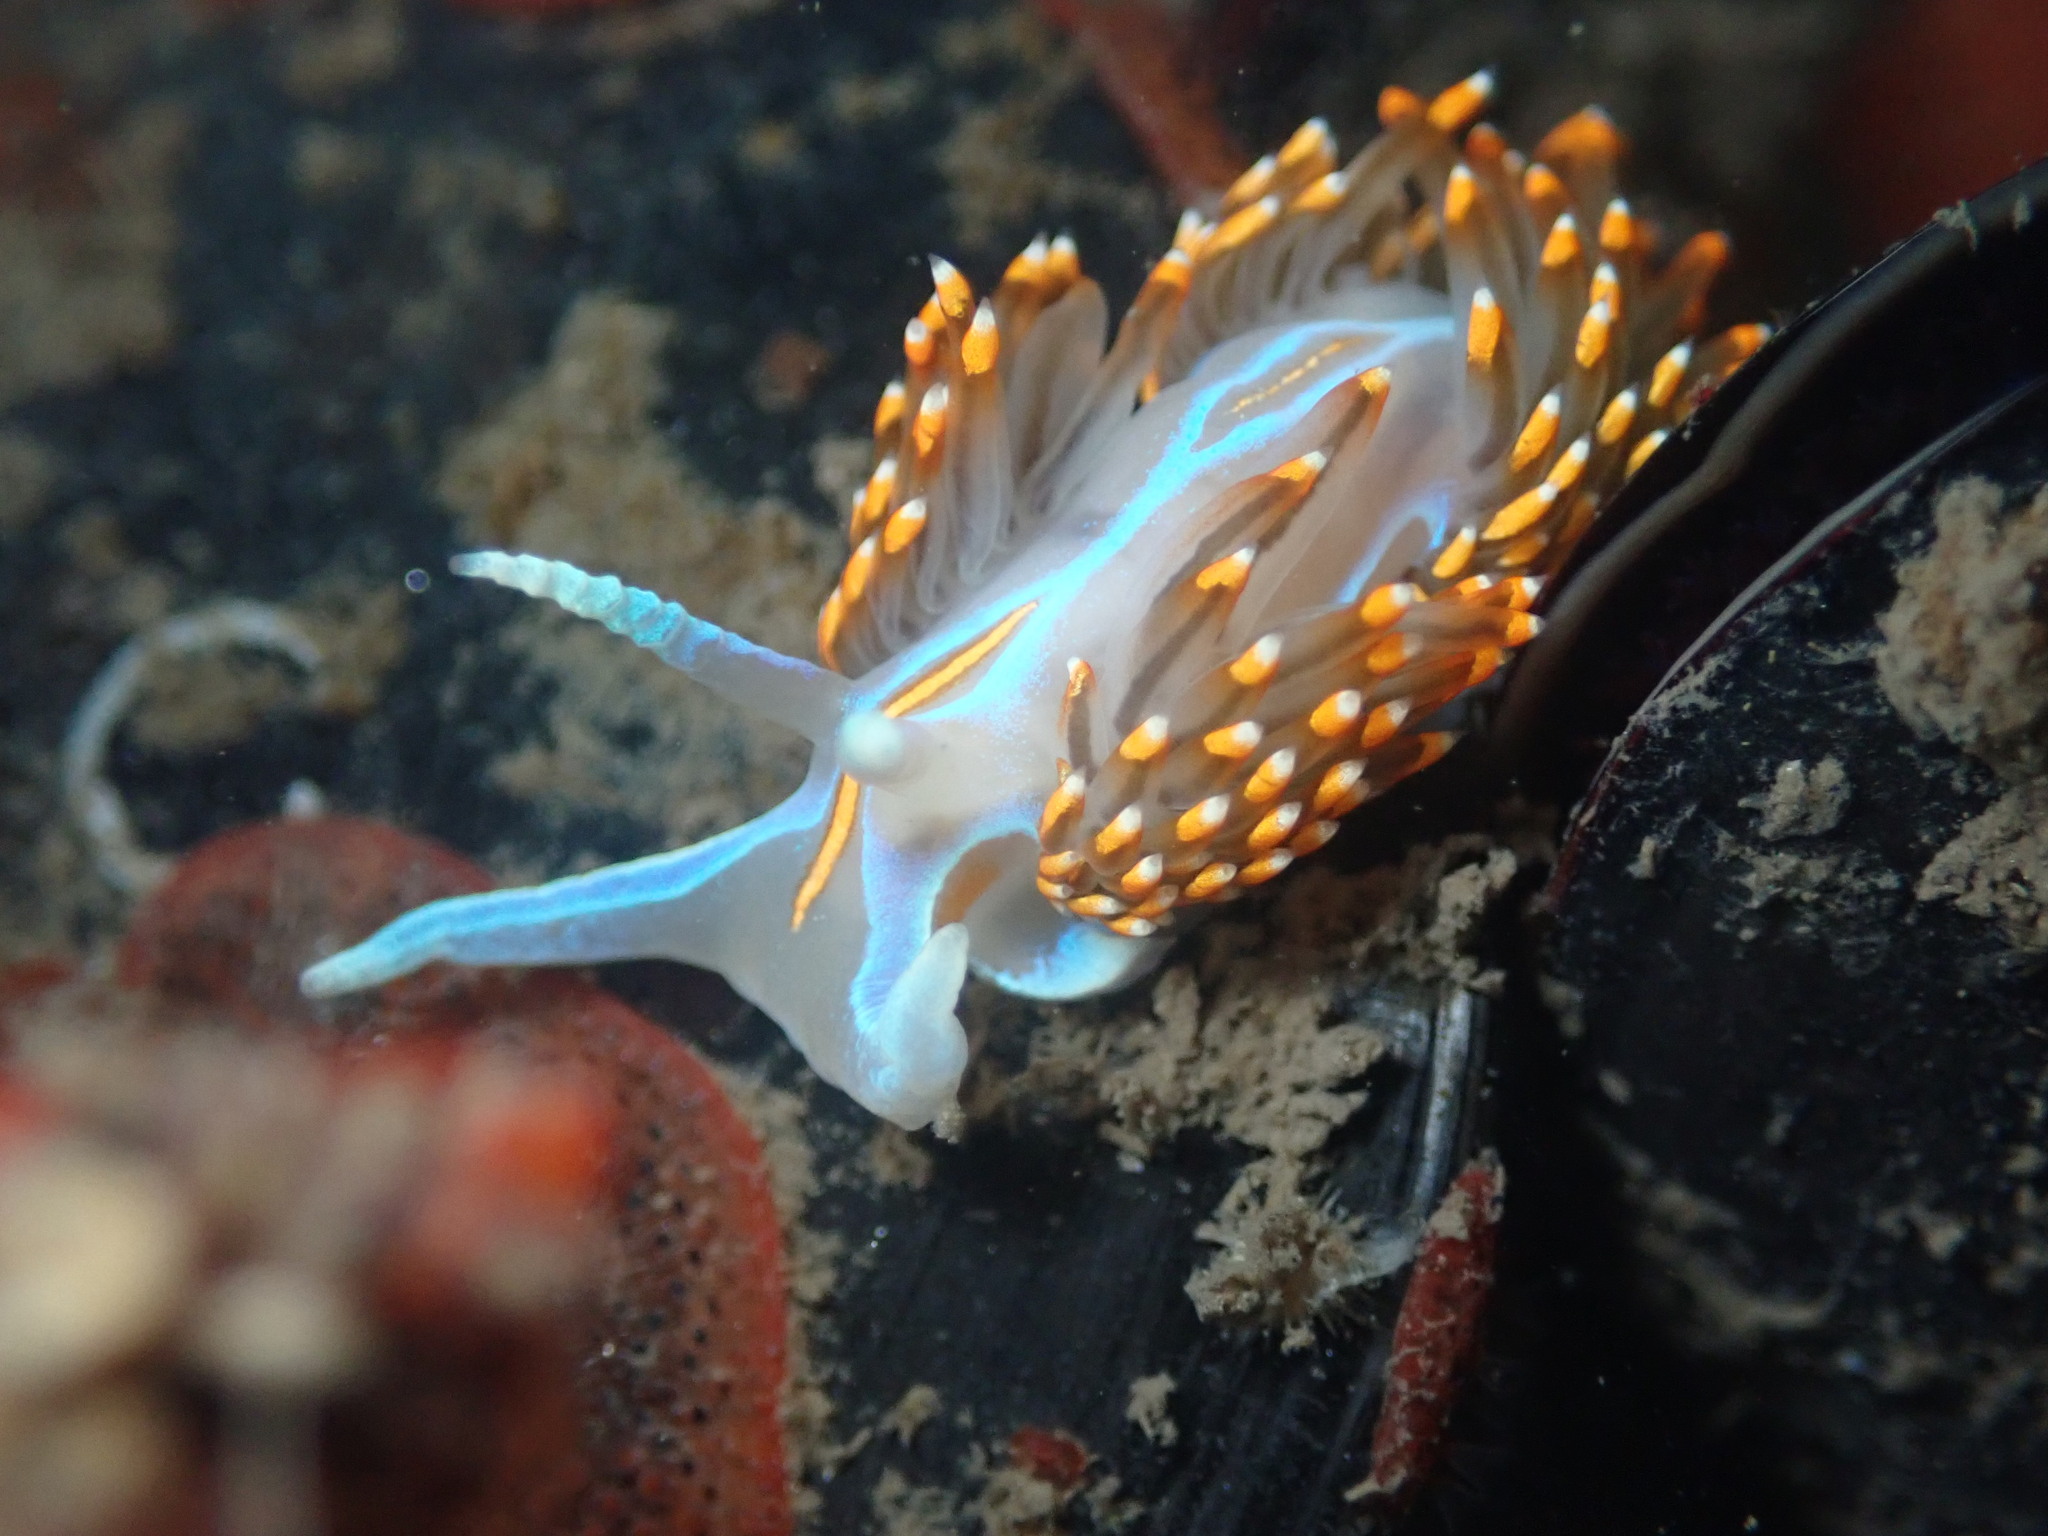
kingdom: Animalia
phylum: Mollusca
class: Gastropoda
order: Nudibranchia
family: Myrrhinidae
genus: Hermissenda
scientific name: Hermissenda opalescens
